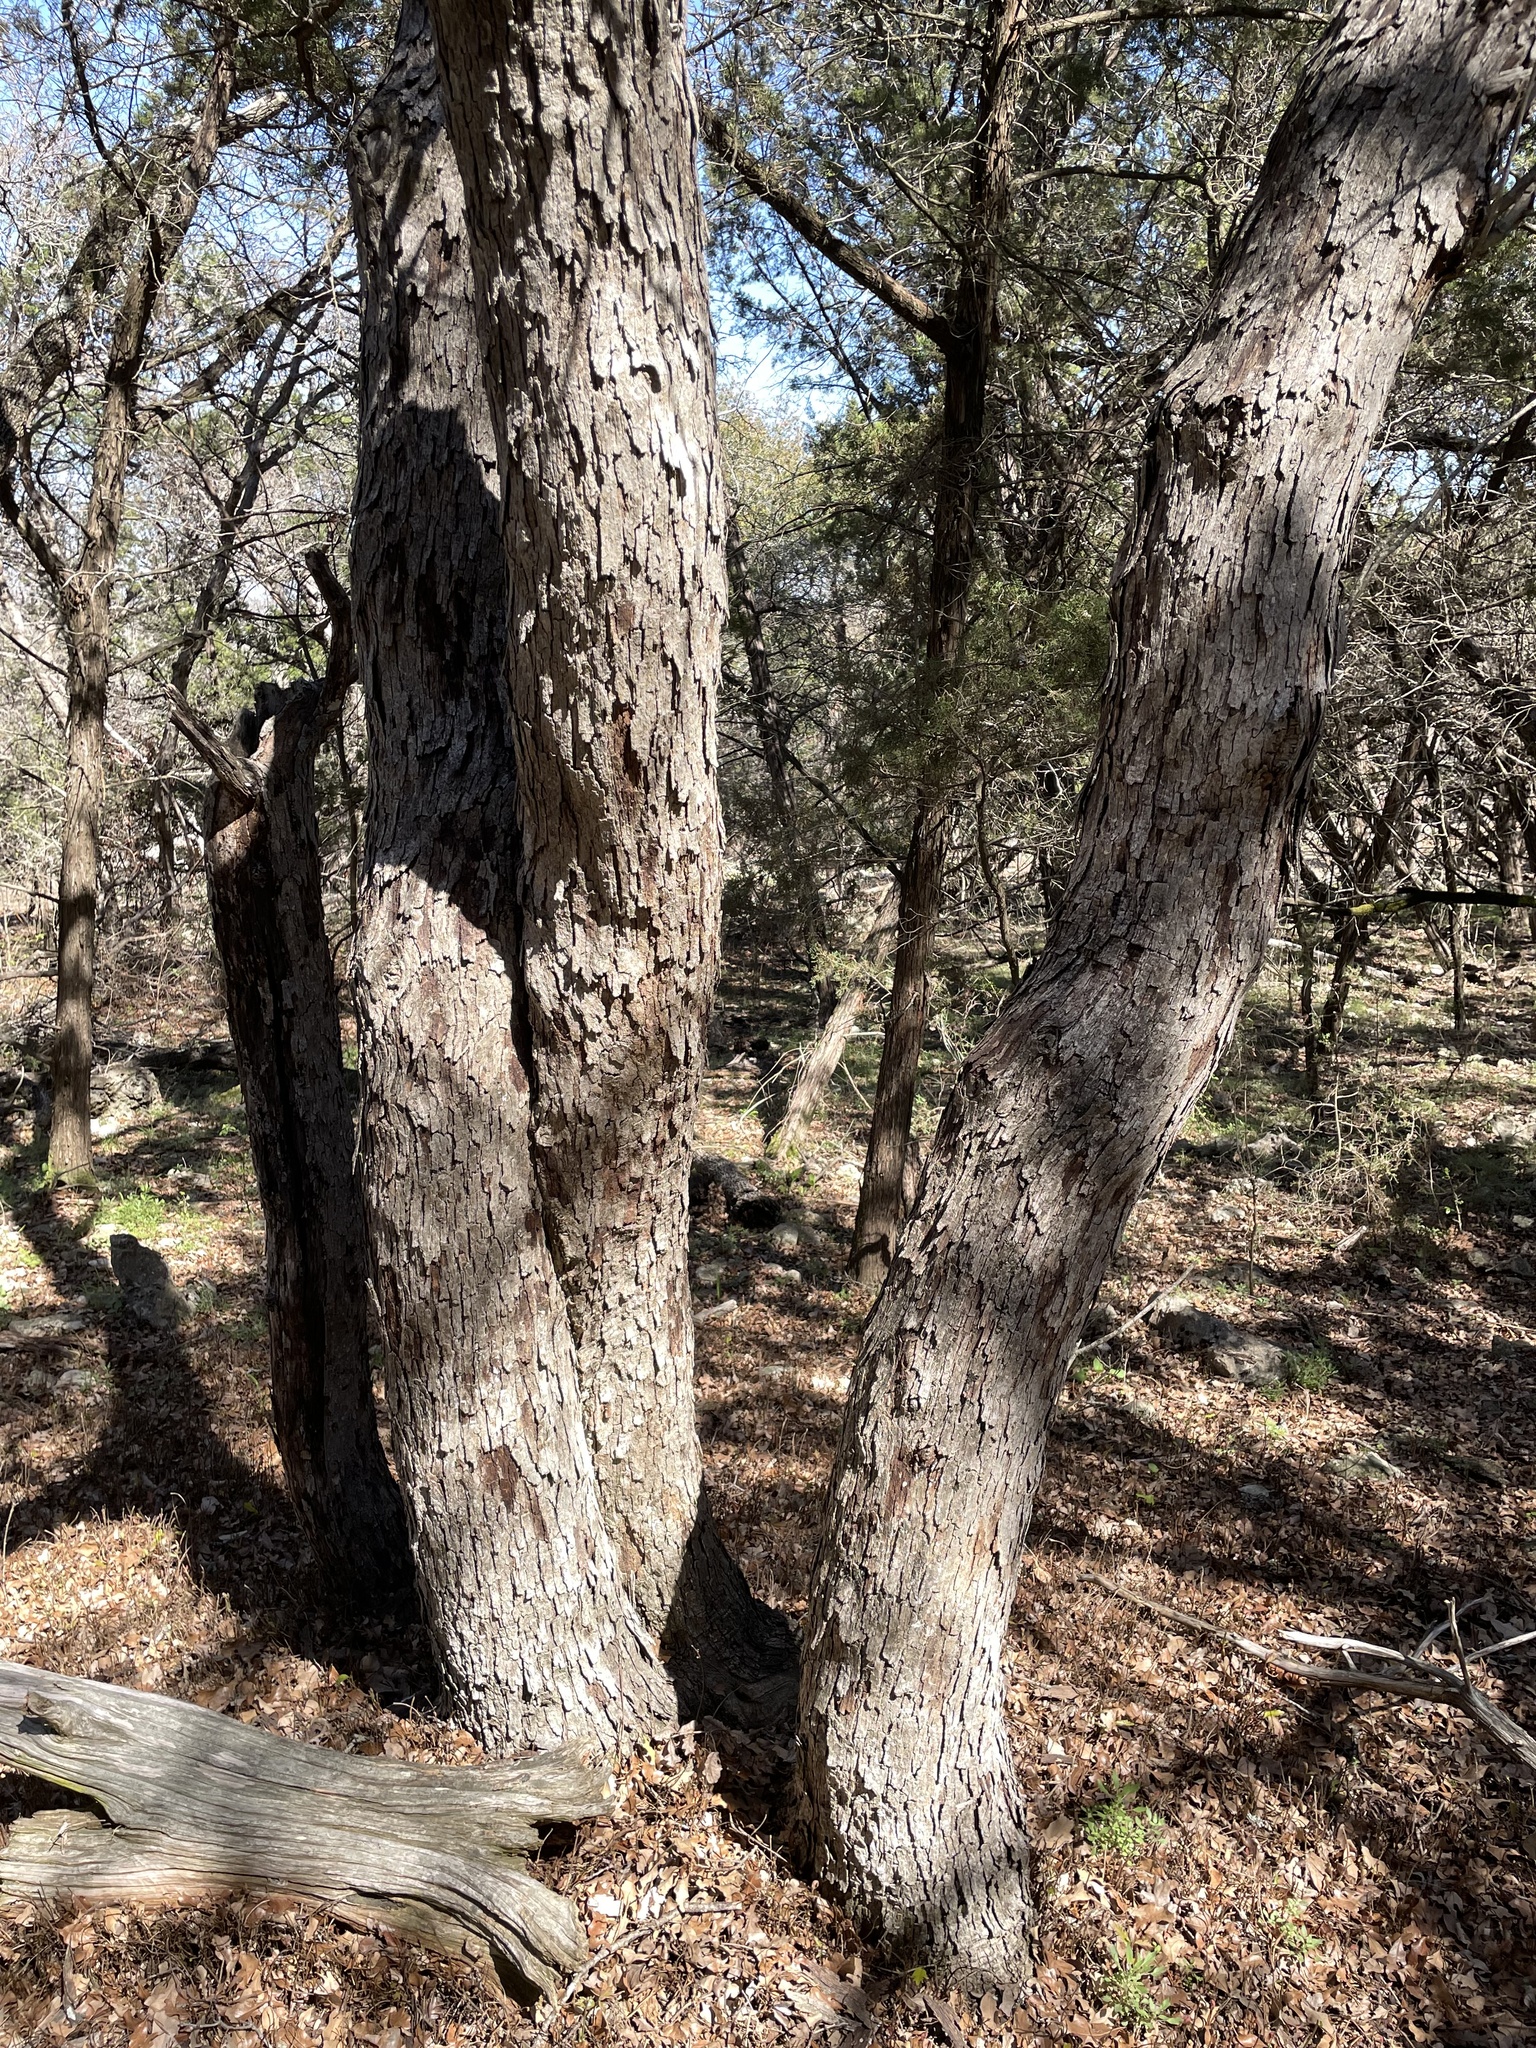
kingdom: Plantae
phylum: Tracheophyta
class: Magnoliopsida
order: Fagales
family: Fagaceae
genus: Quercus
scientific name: Quercus sinuata
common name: Durand oak
